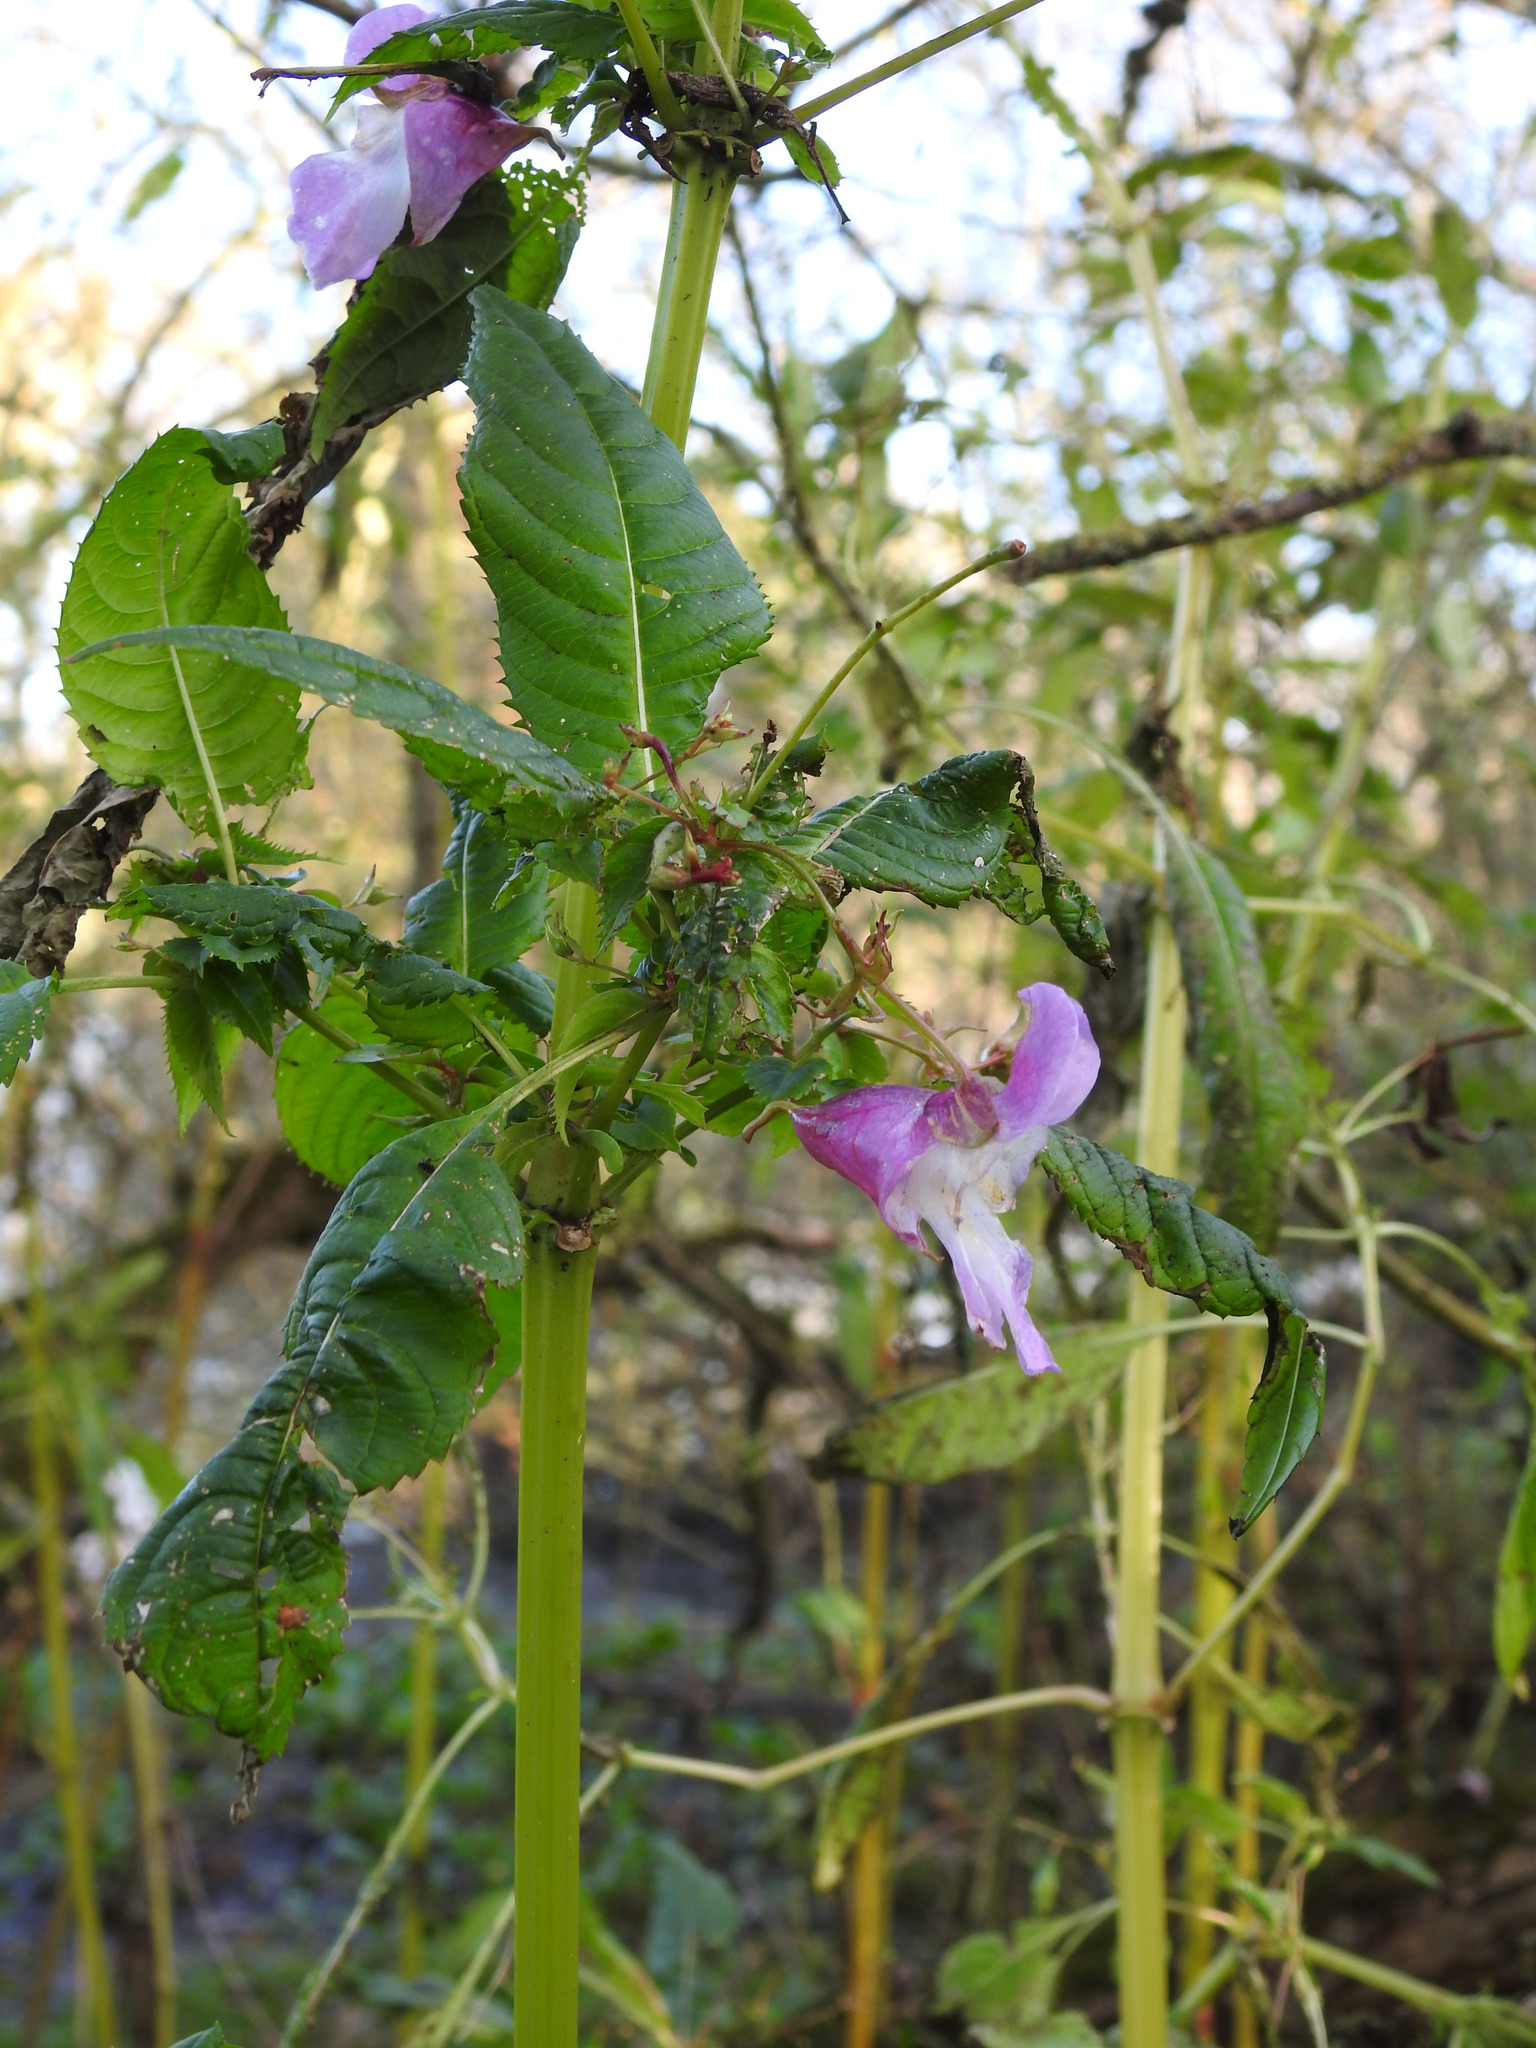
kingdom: Plantae
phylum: Tracheophyta
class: Magnoliopsida
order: Ericales
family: Balsaminaceae
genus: Impatiens
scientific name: Impatiens glandulifera
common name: Himalayan balsam
